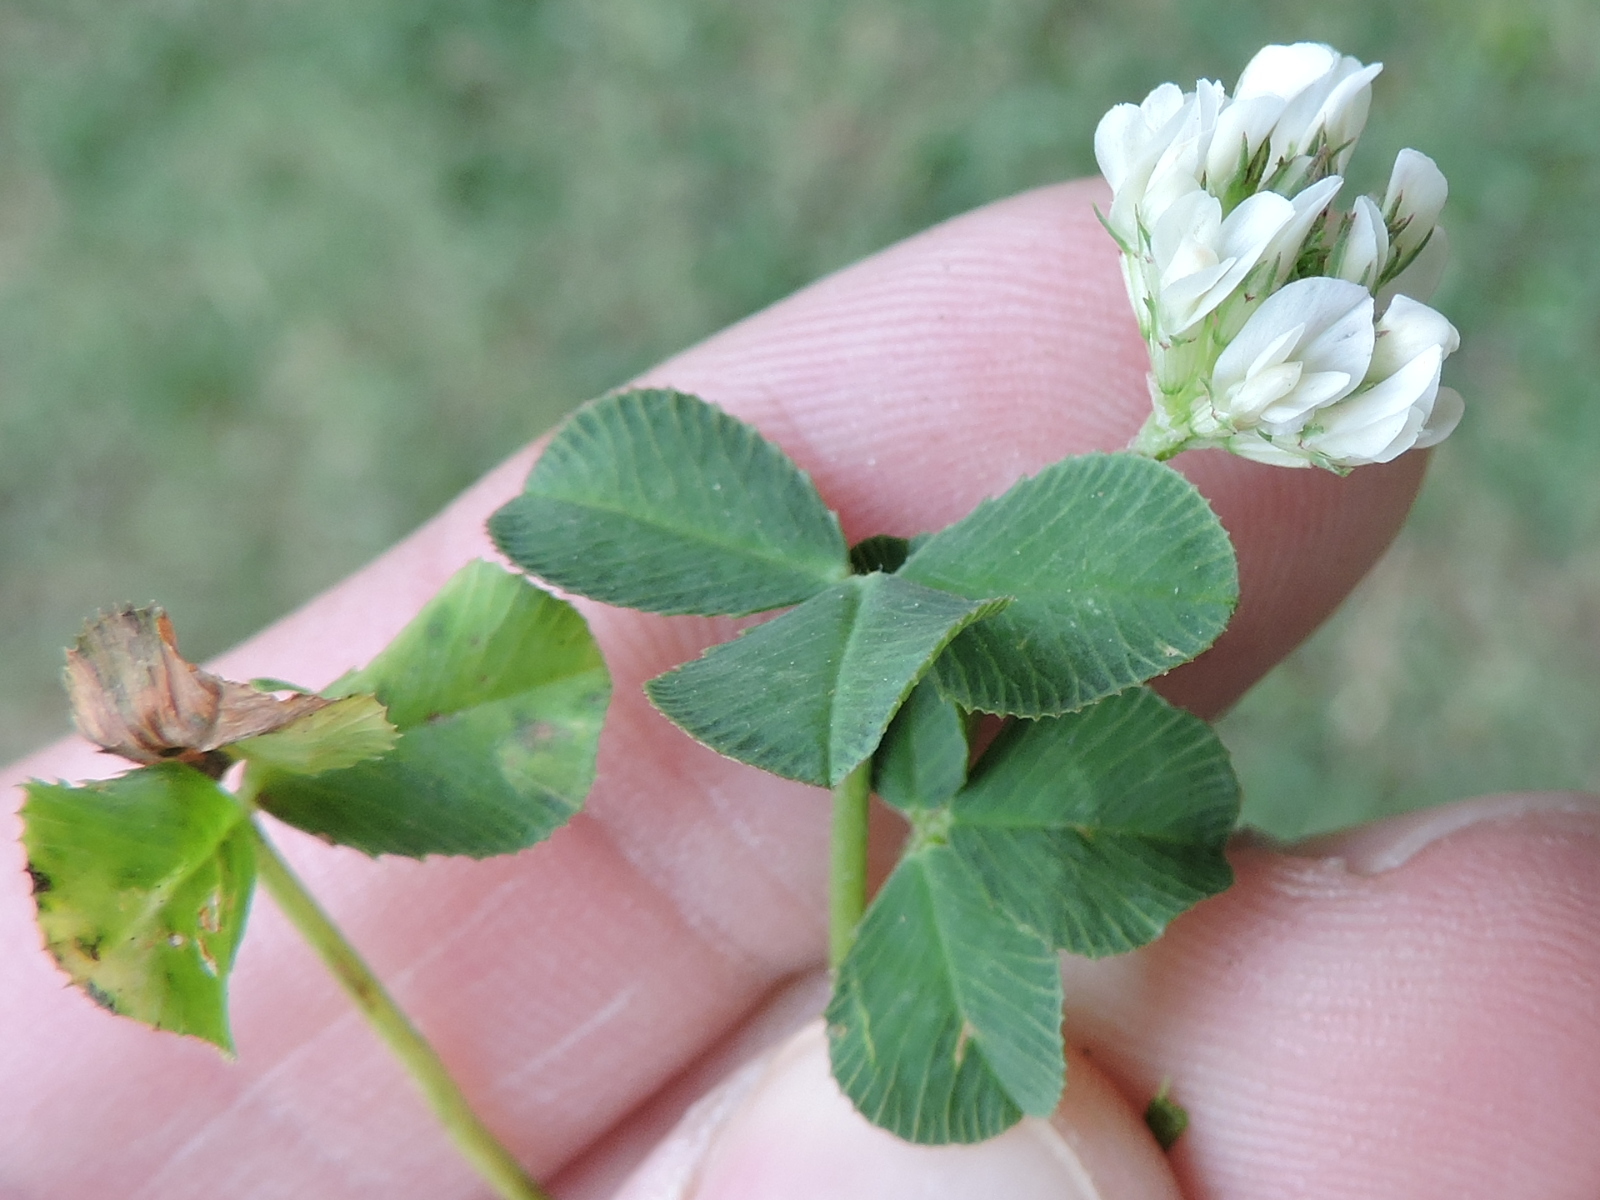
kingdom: Plantae
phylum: Tracheophyta
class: Magnoliopsida
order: Fabales
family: Fabaceae
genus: Trifolium
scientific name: Trifolium repens
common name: White clover
